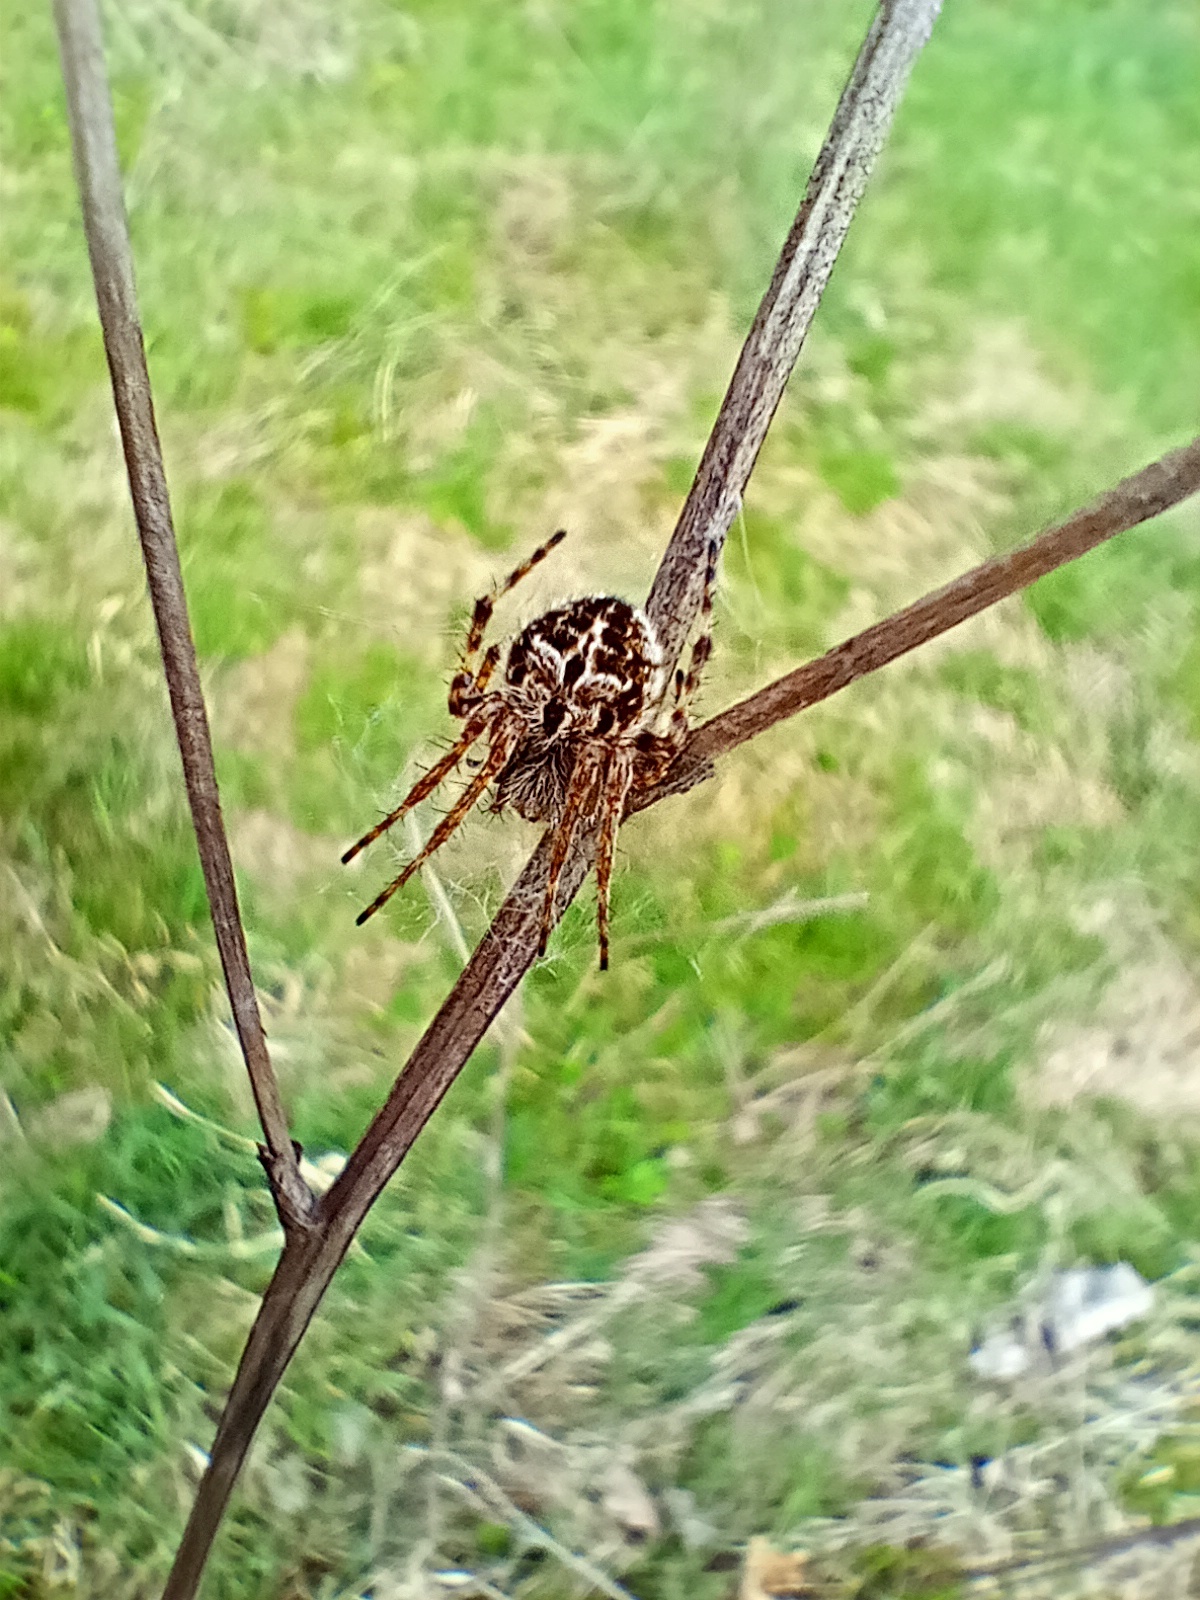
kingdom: Animalia
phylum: Arthropoda
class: Arachnida
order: Araneae
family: Araneidae
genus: Agalenatea
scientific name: Agalenatea redii
